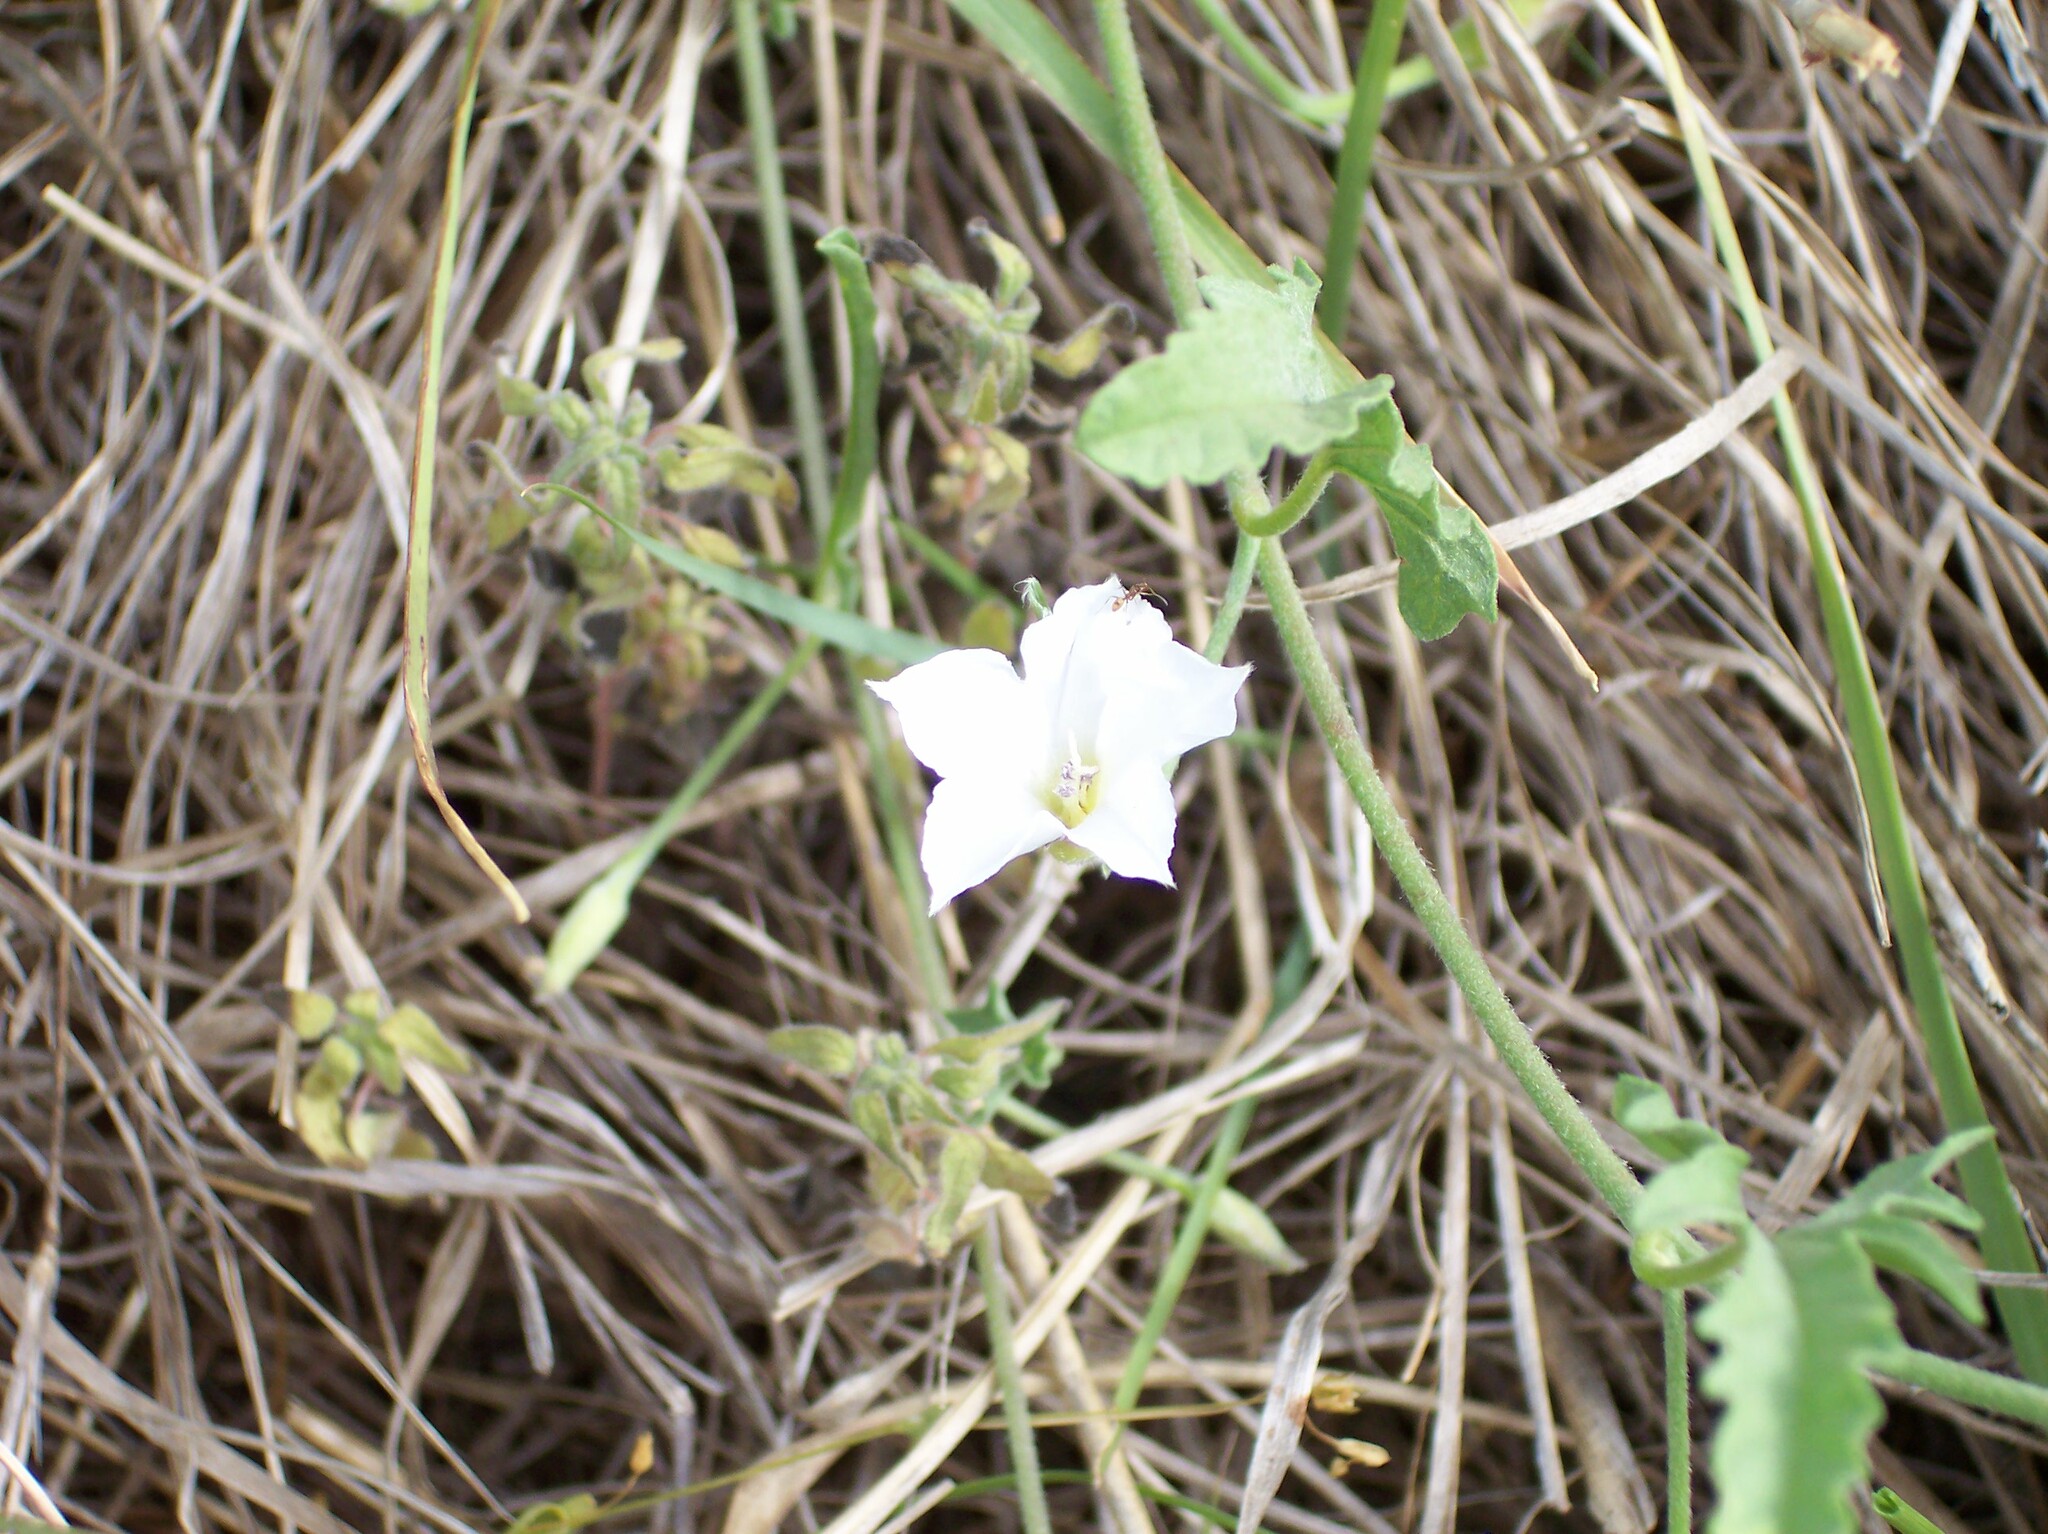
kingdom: Plantae
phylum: Tracheophyta
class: Magnoliopsida
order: Solanales
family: Convolvulaceae
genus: Convolvulus
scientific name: Convolvulus equitans
